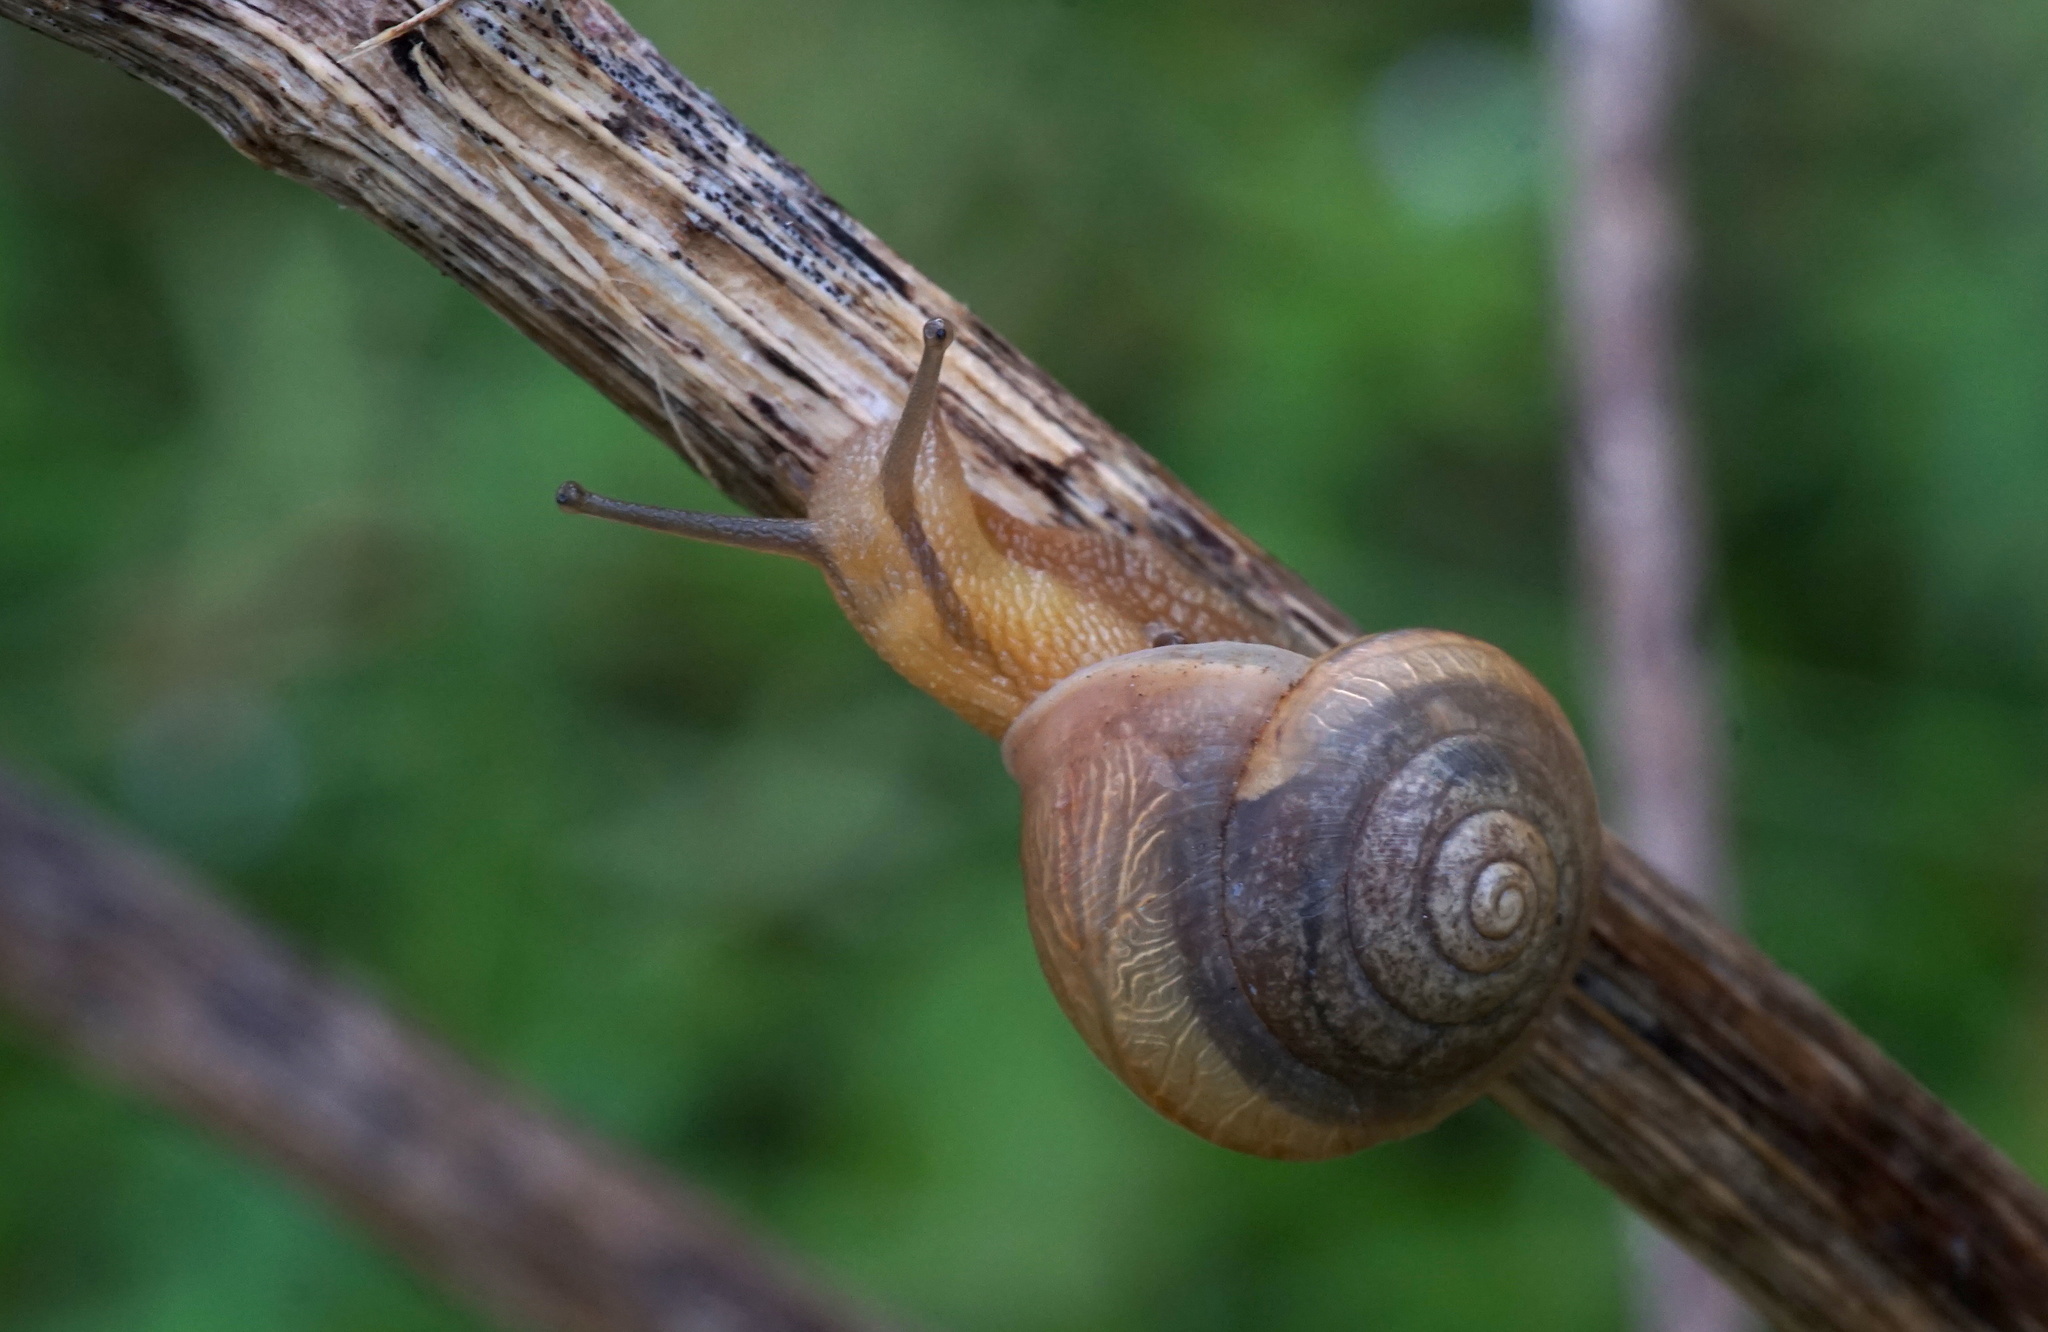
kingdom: Animalia
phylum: Mollusca
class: Gastropoda
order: Stylommatophora
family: Camaenidae
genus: Bradybaena
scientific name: Bradybaena similaris
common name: Asian trampsnail
